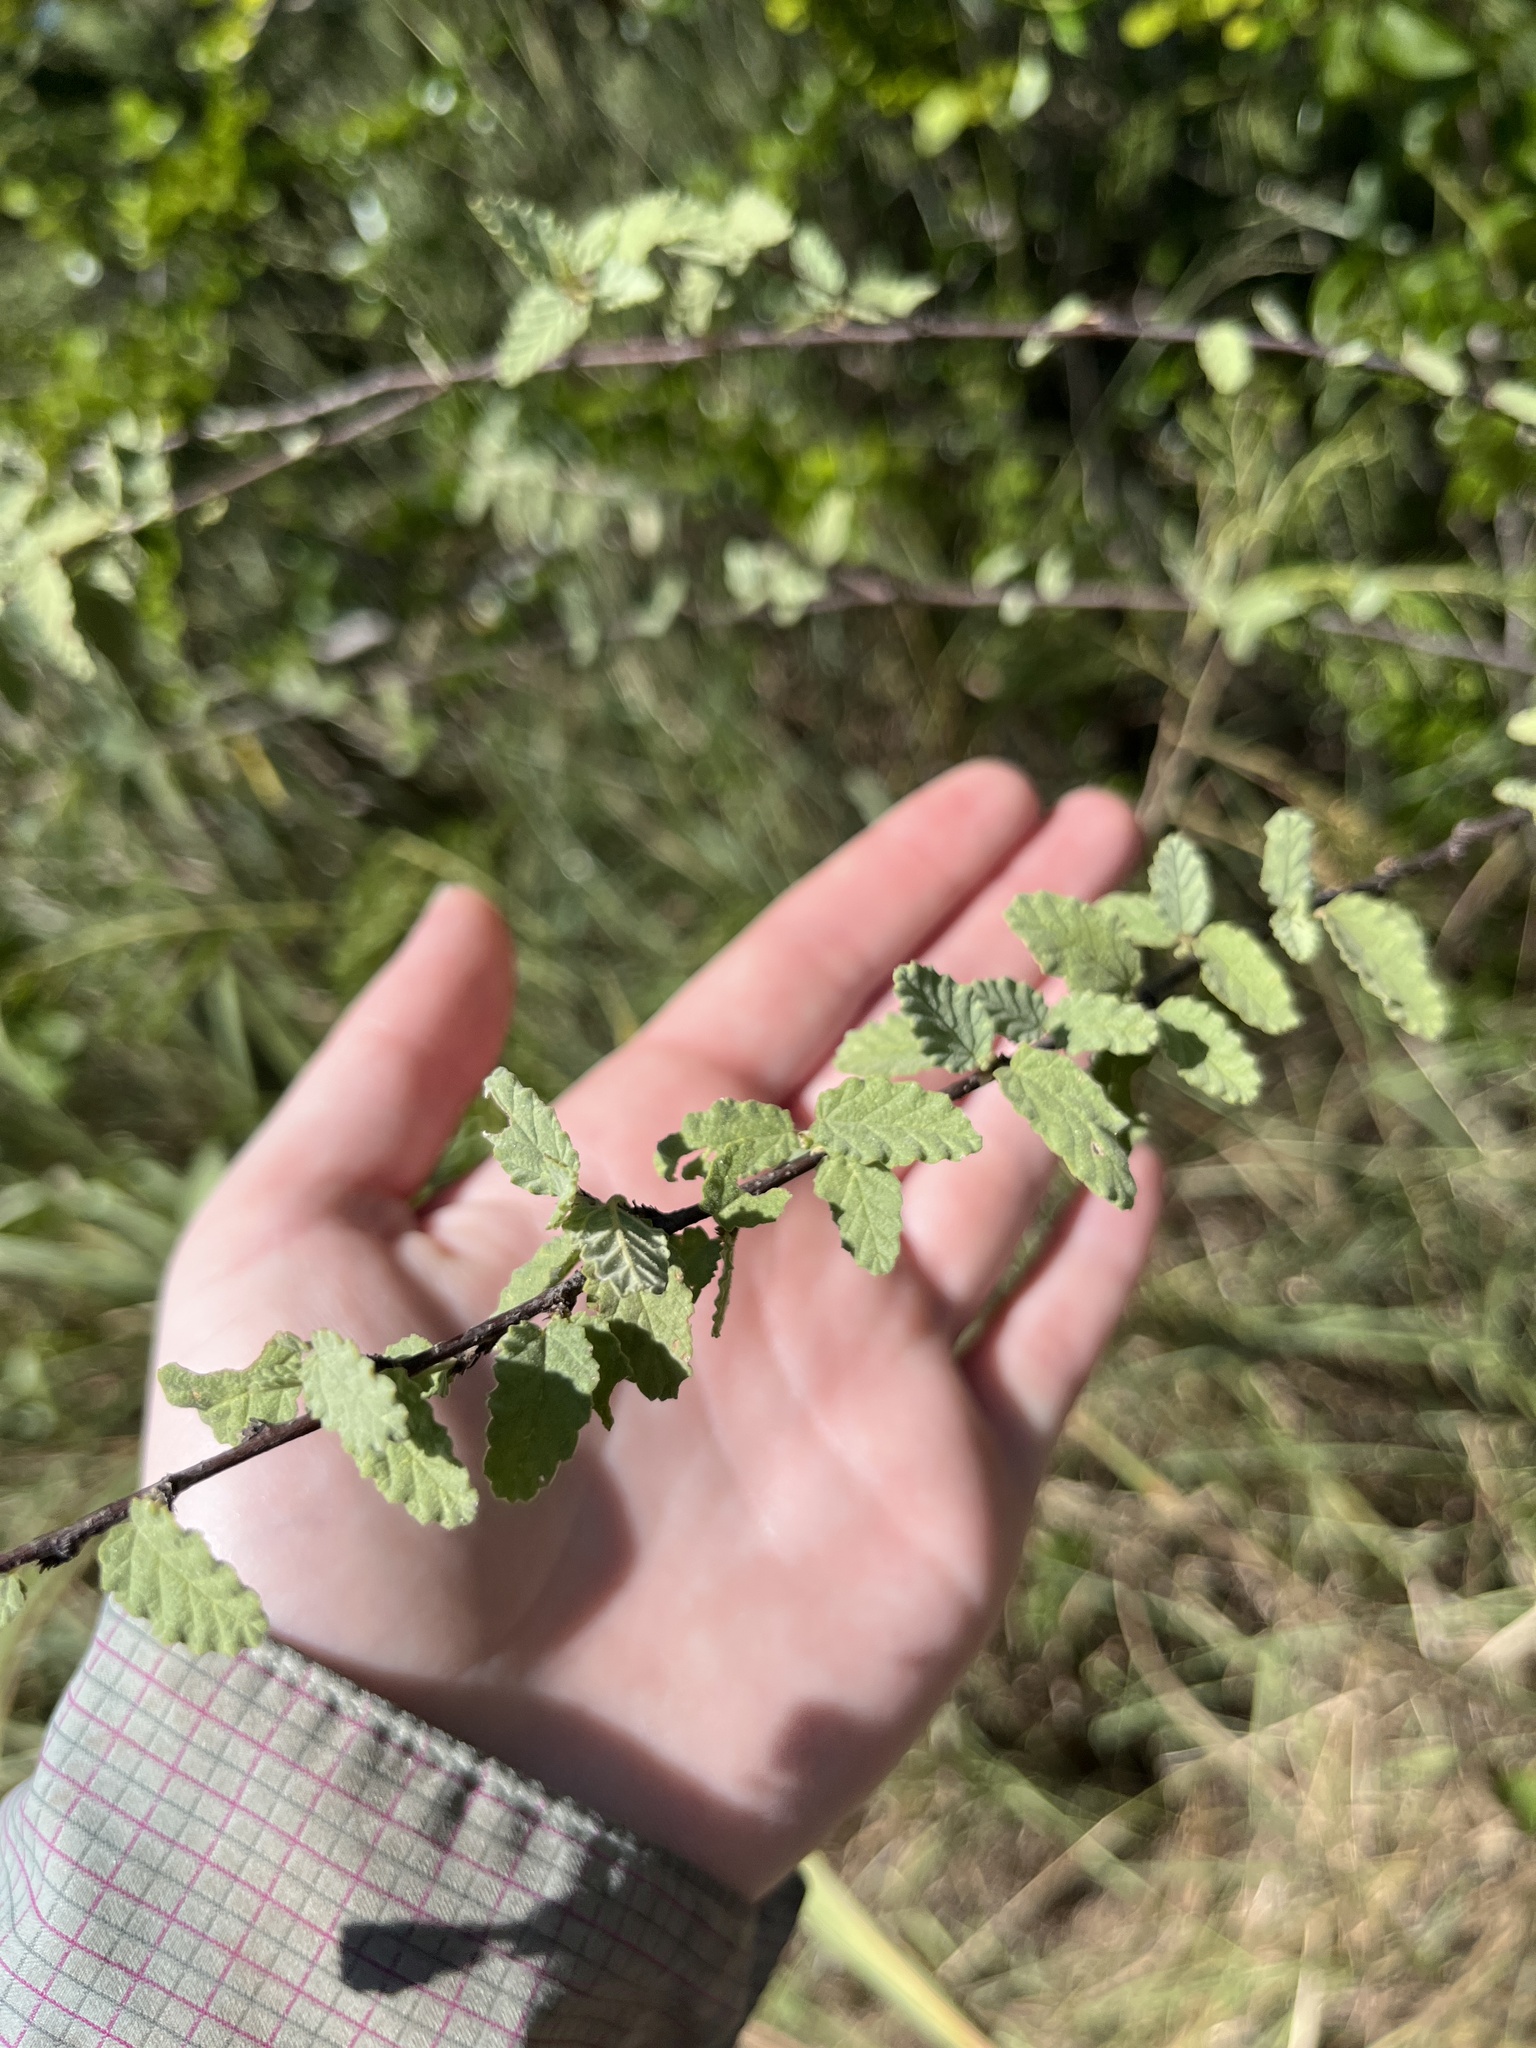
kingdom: Plantae
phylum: Tracheophyta
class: Magnoliopsida
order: Malvales
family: Malvaceae
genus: Melochia
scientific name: Melochia tomentosa
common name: Black torch
